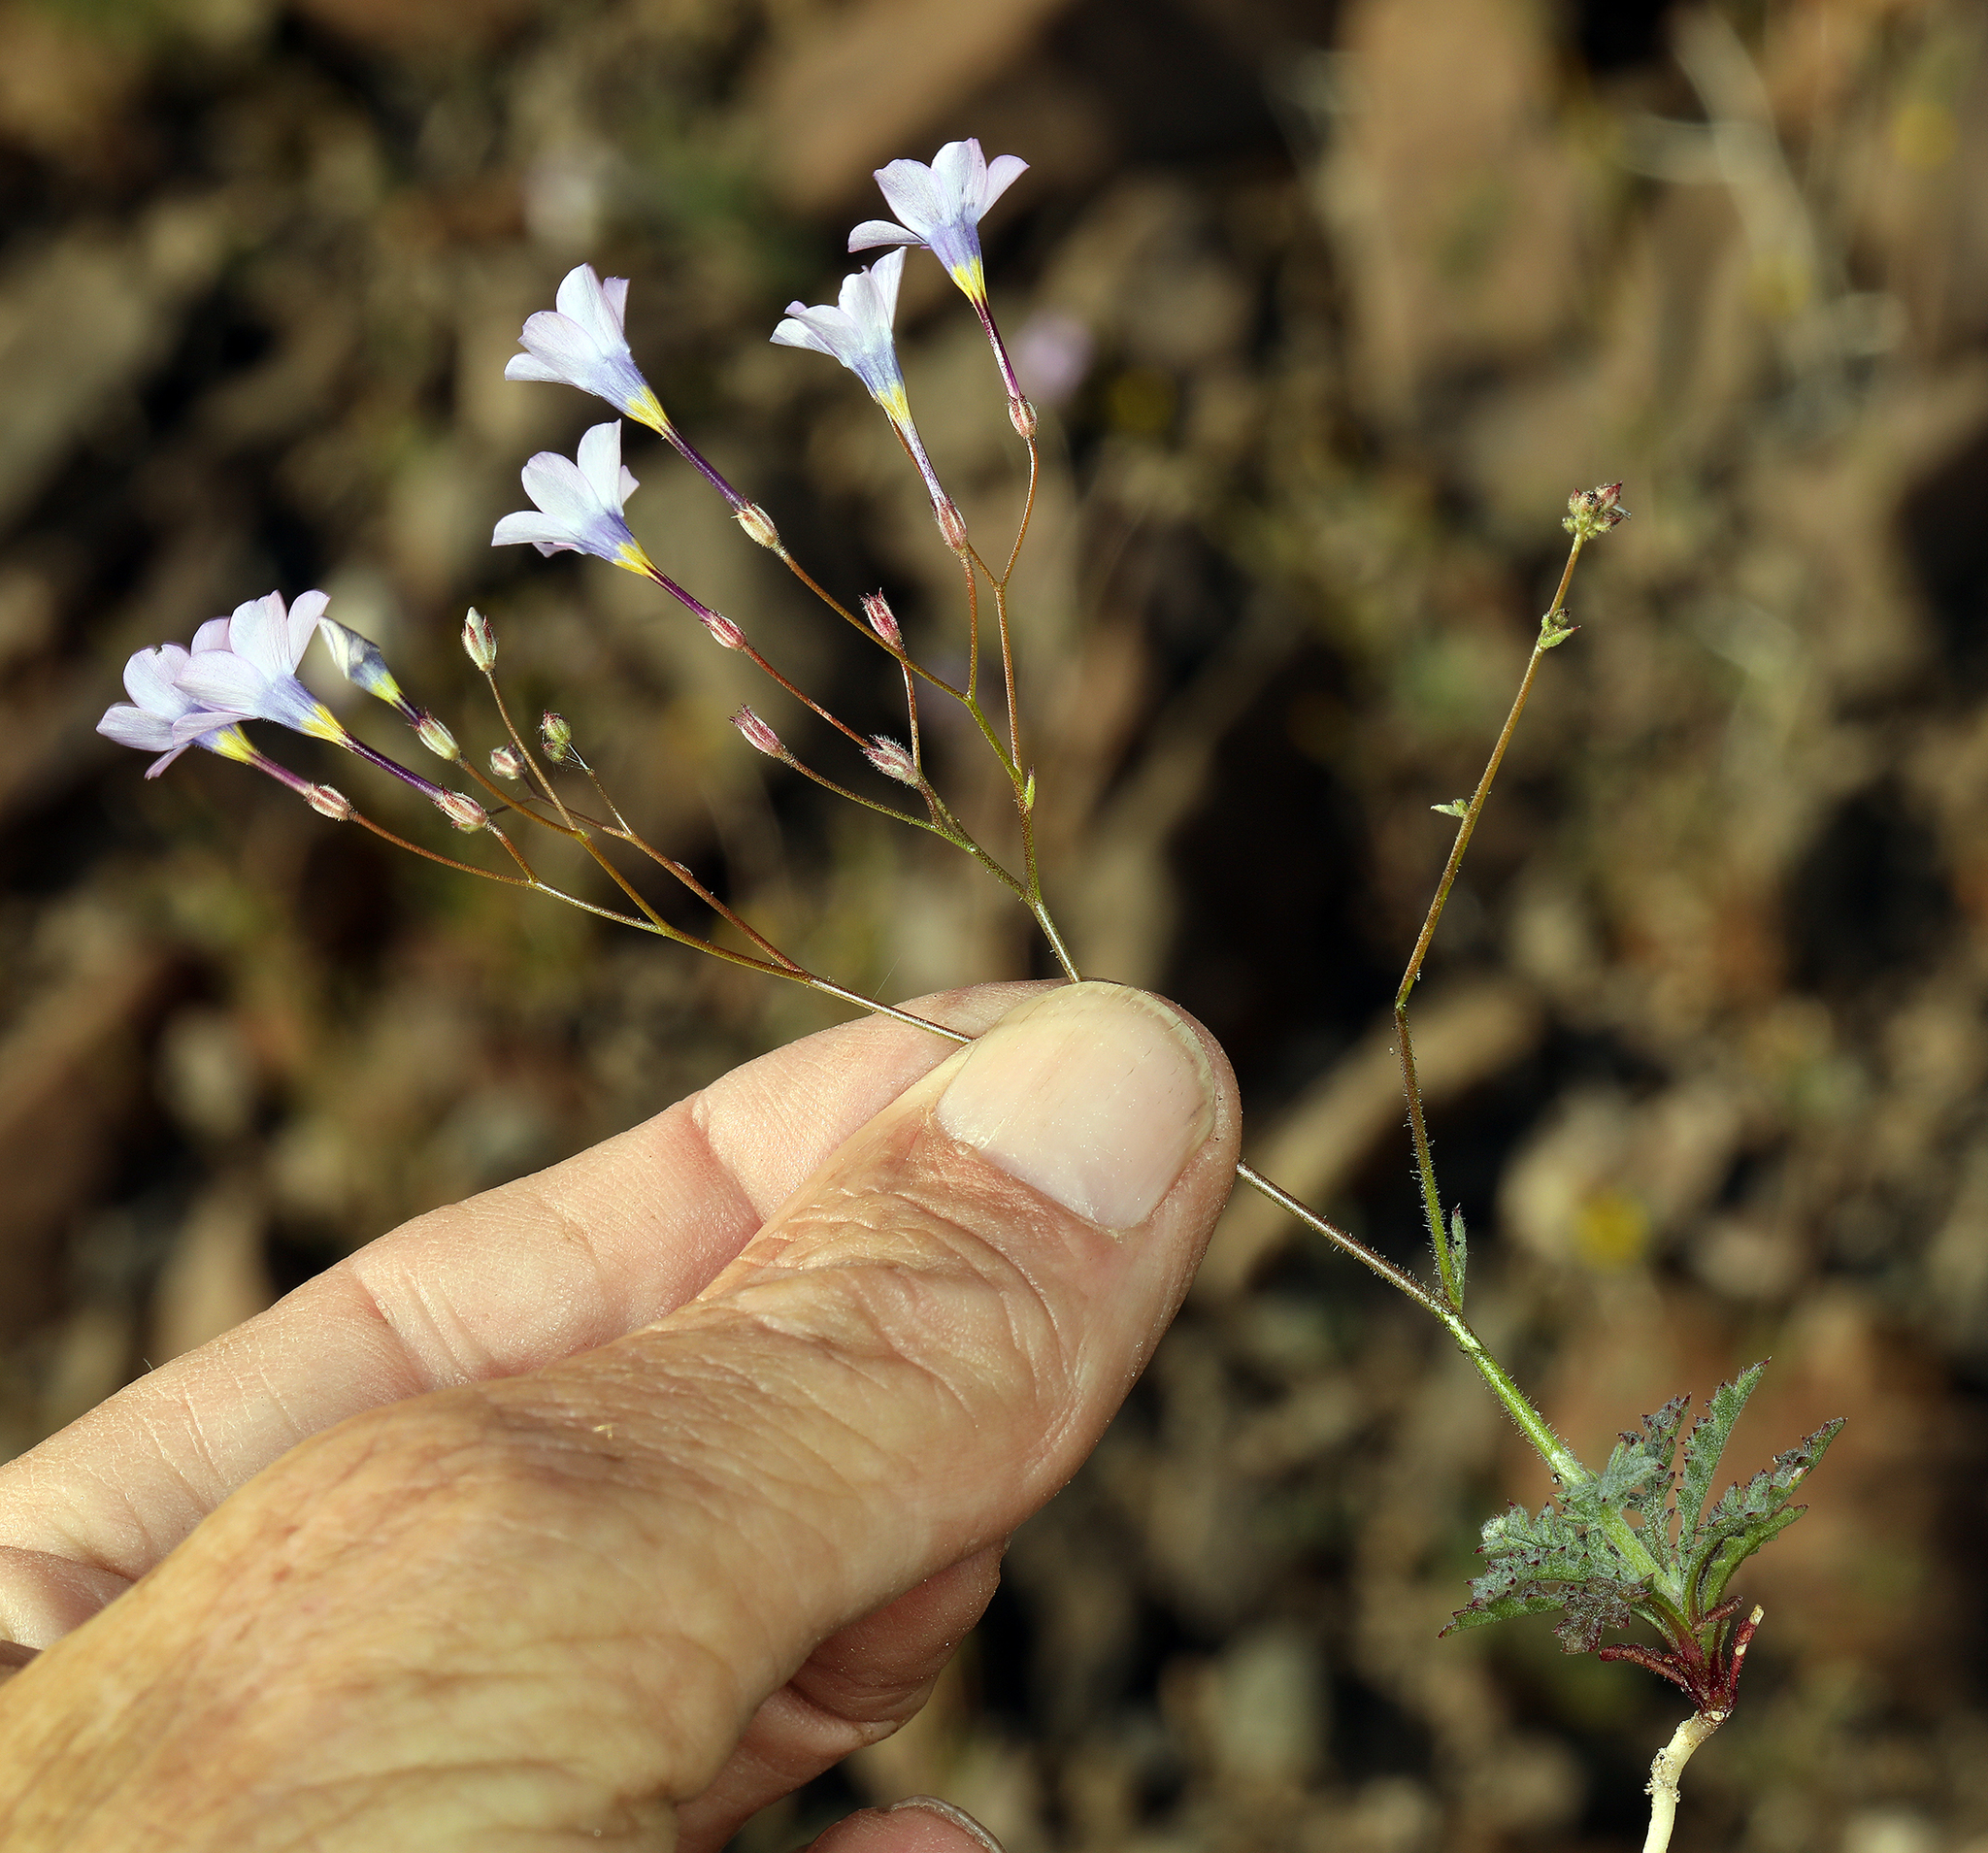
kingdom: Plantae
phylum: Tracheophyta
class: Magnoliopsida
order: Ericales
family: Polemoniaceae
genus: Gilia
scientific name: Gilia cana
